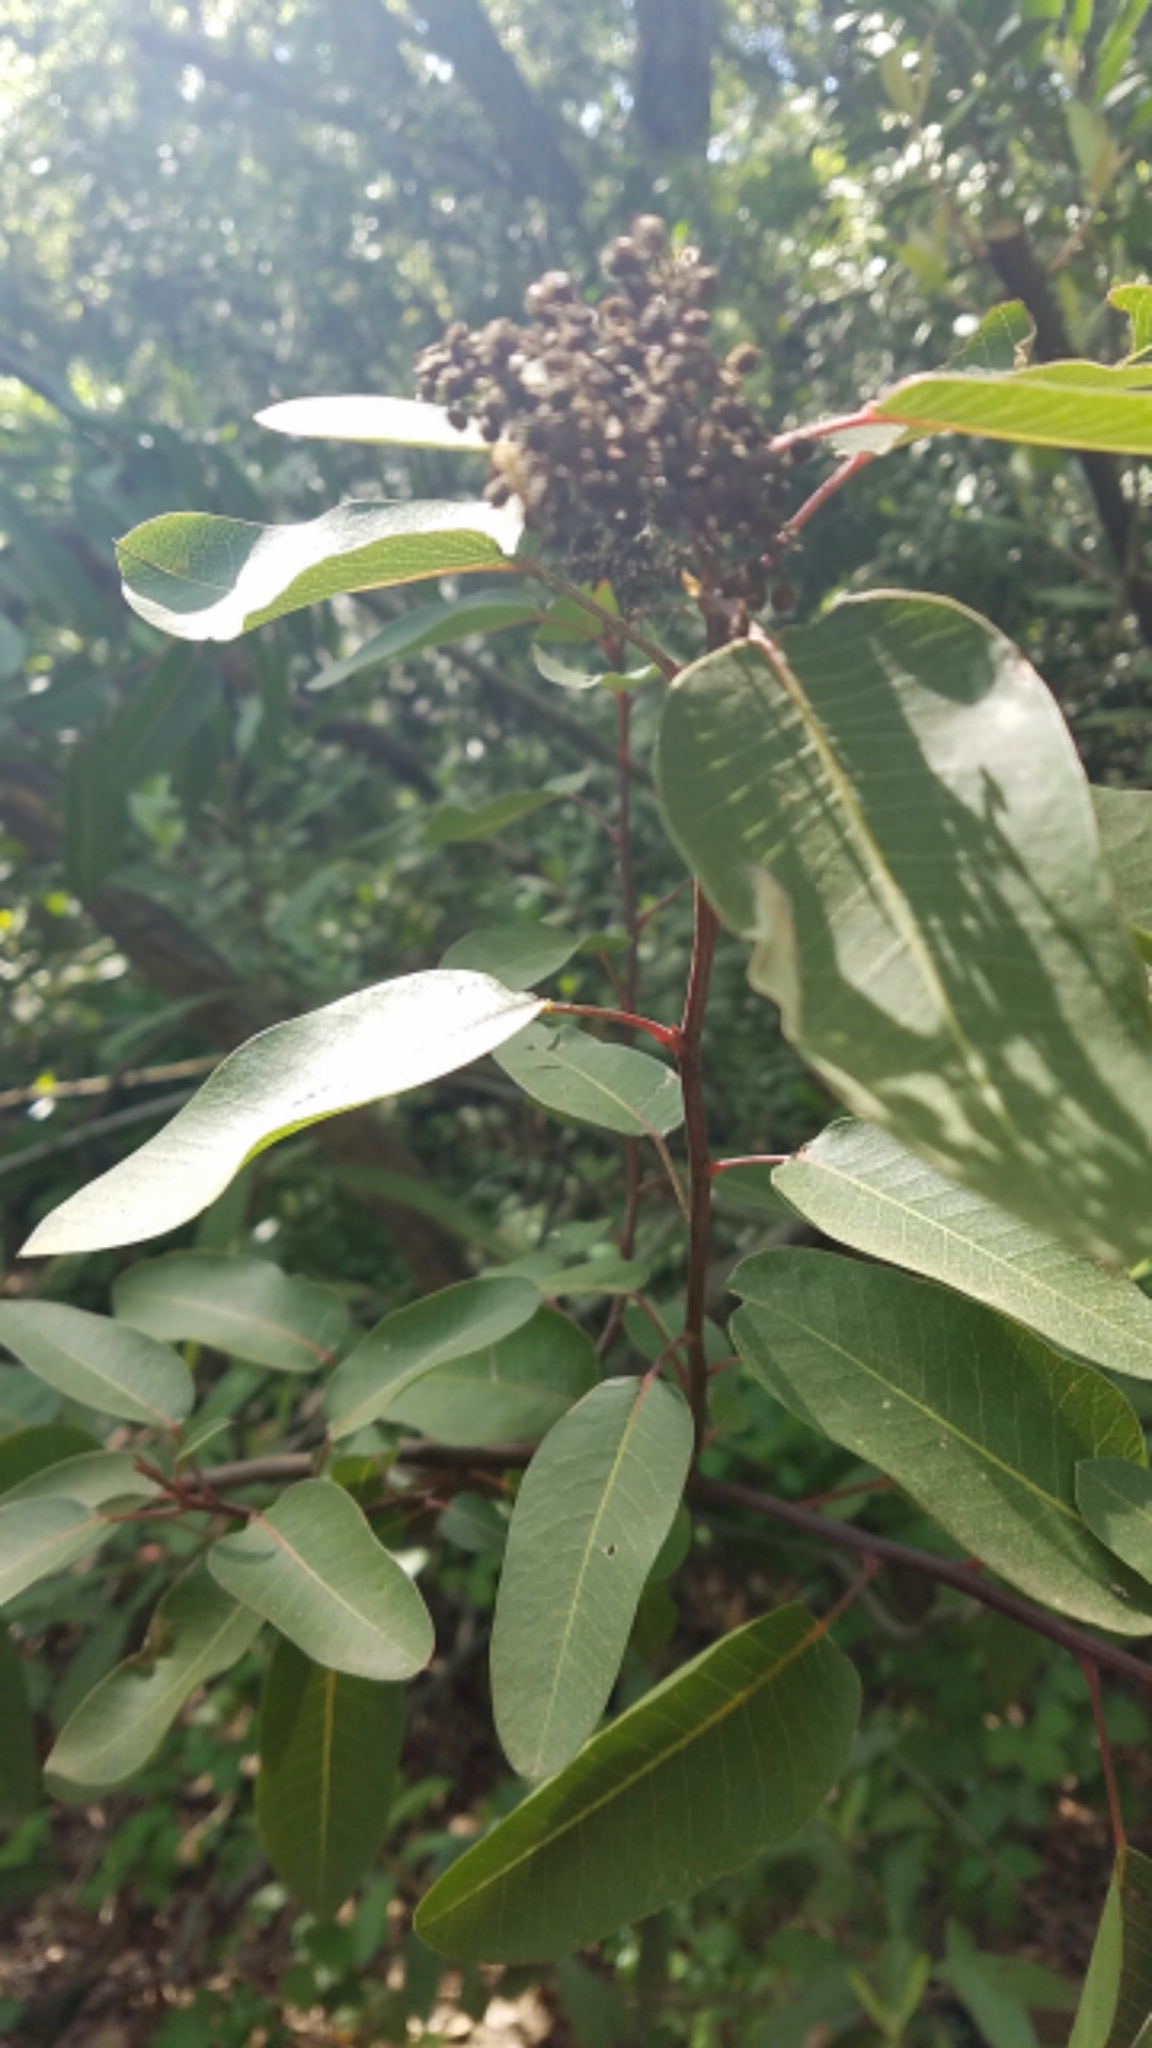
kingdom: Plantae
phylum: Tracheophyta
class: Magnoliopsida
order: Sapindales
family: Anacardiaceae
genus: Malosma
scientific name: Malosma laurina
